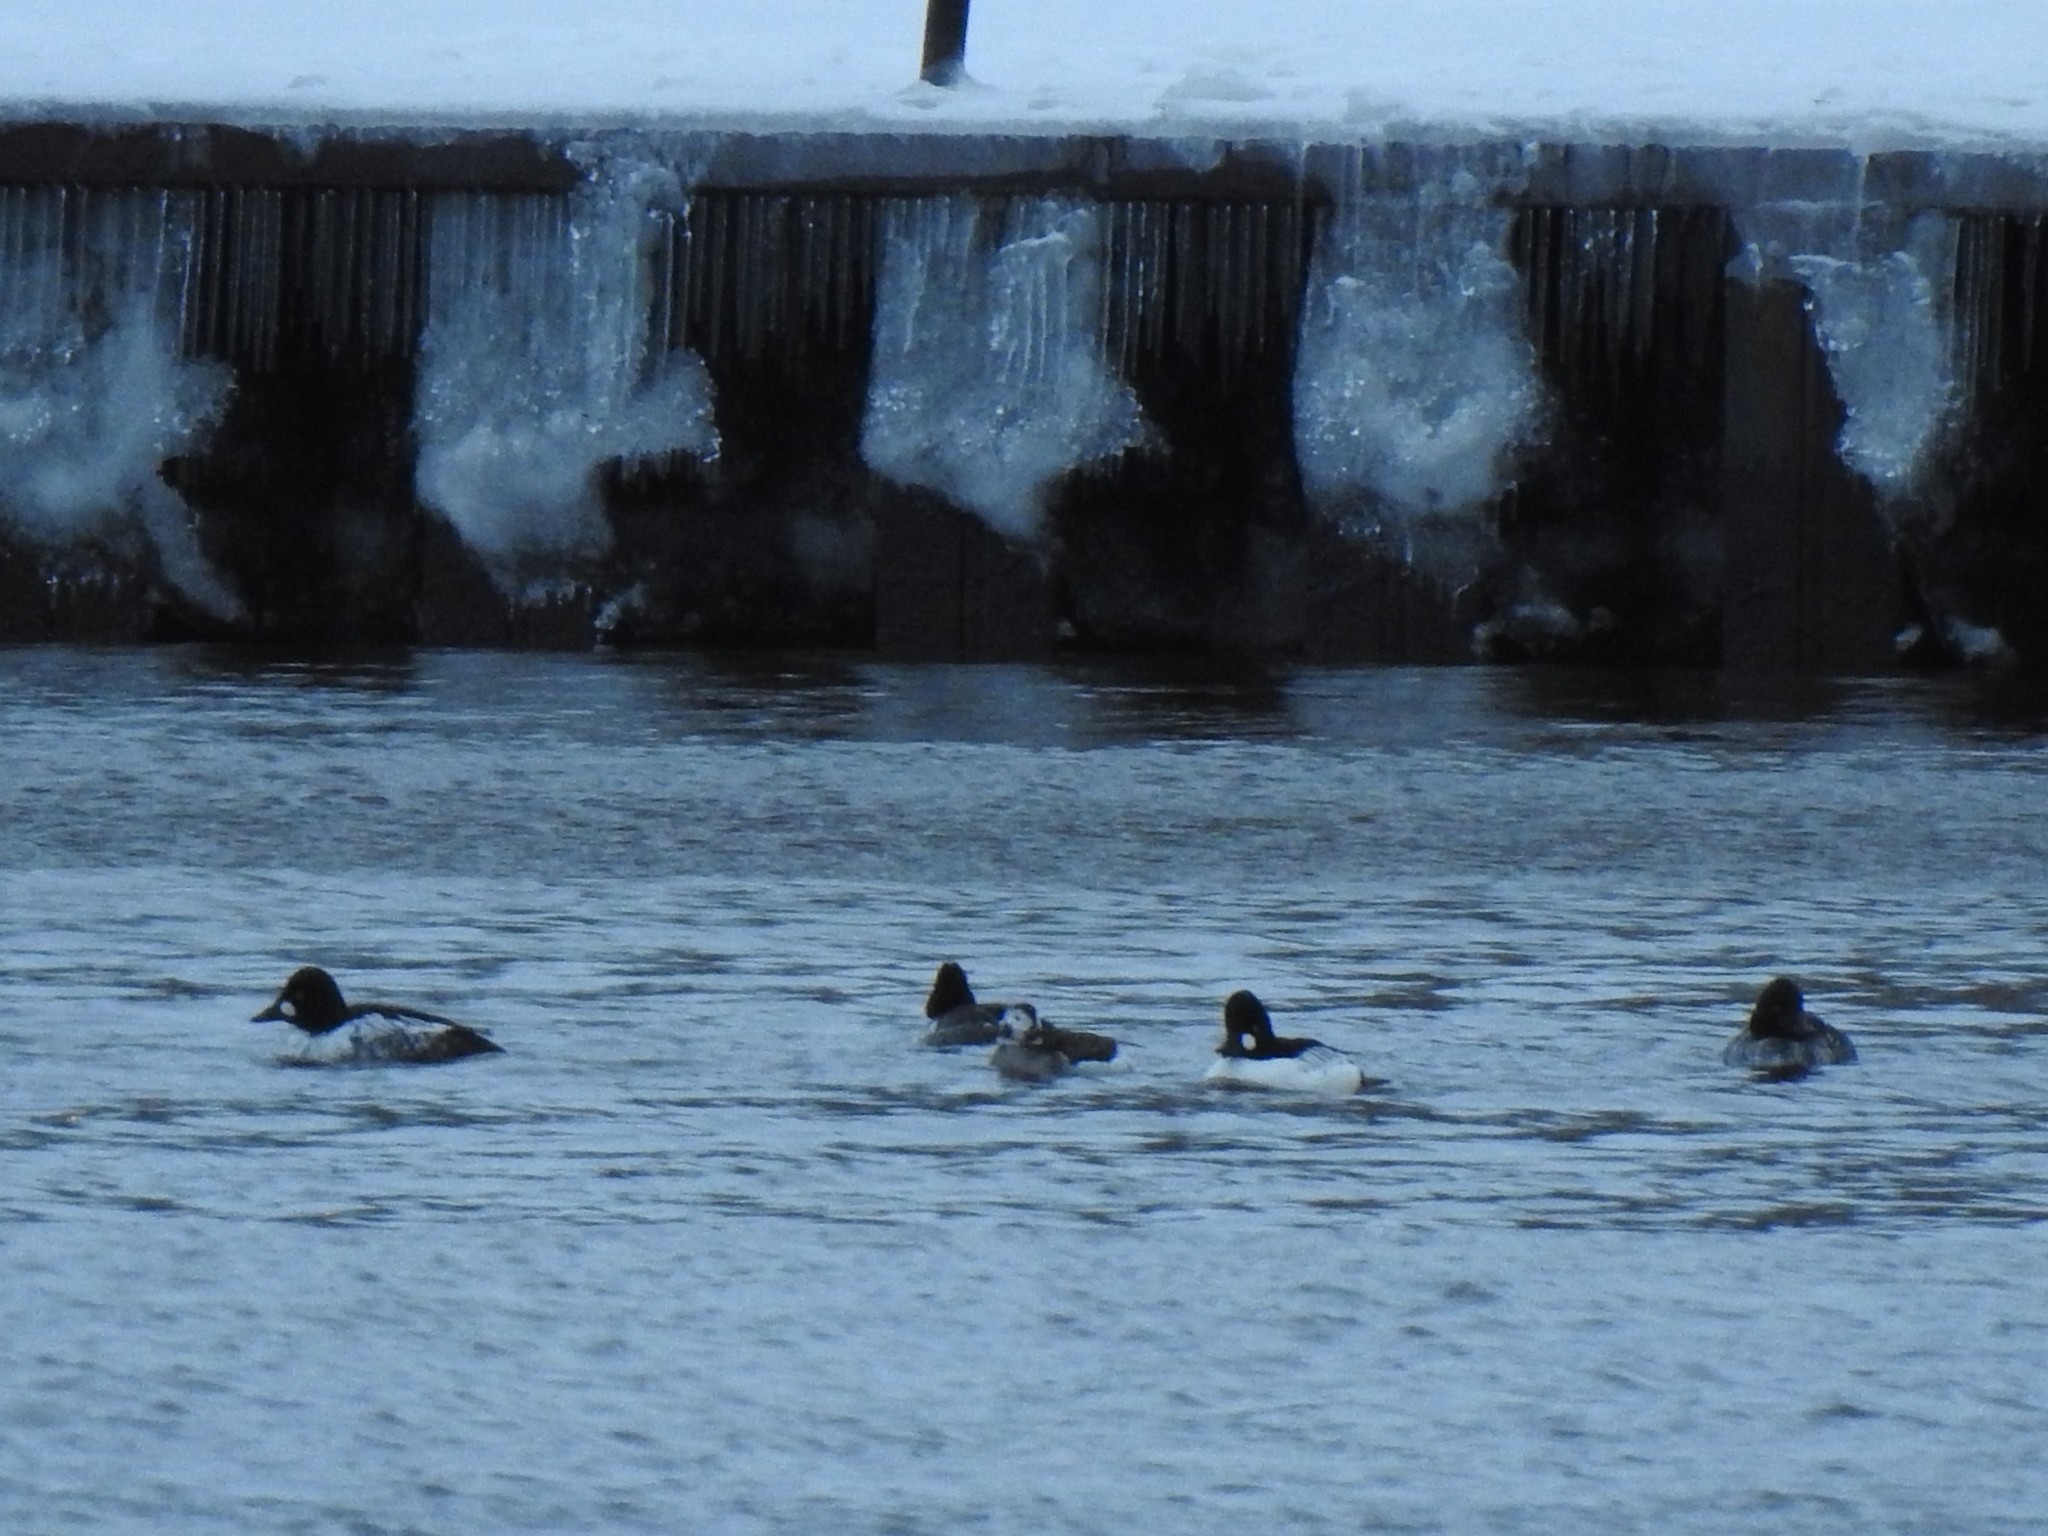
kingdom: Animalia
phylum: Chordata
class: Aves
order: Anseriformes
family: Anatidae
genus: Bucephala
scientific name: Bucephala clangula
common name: Common goldeneye
